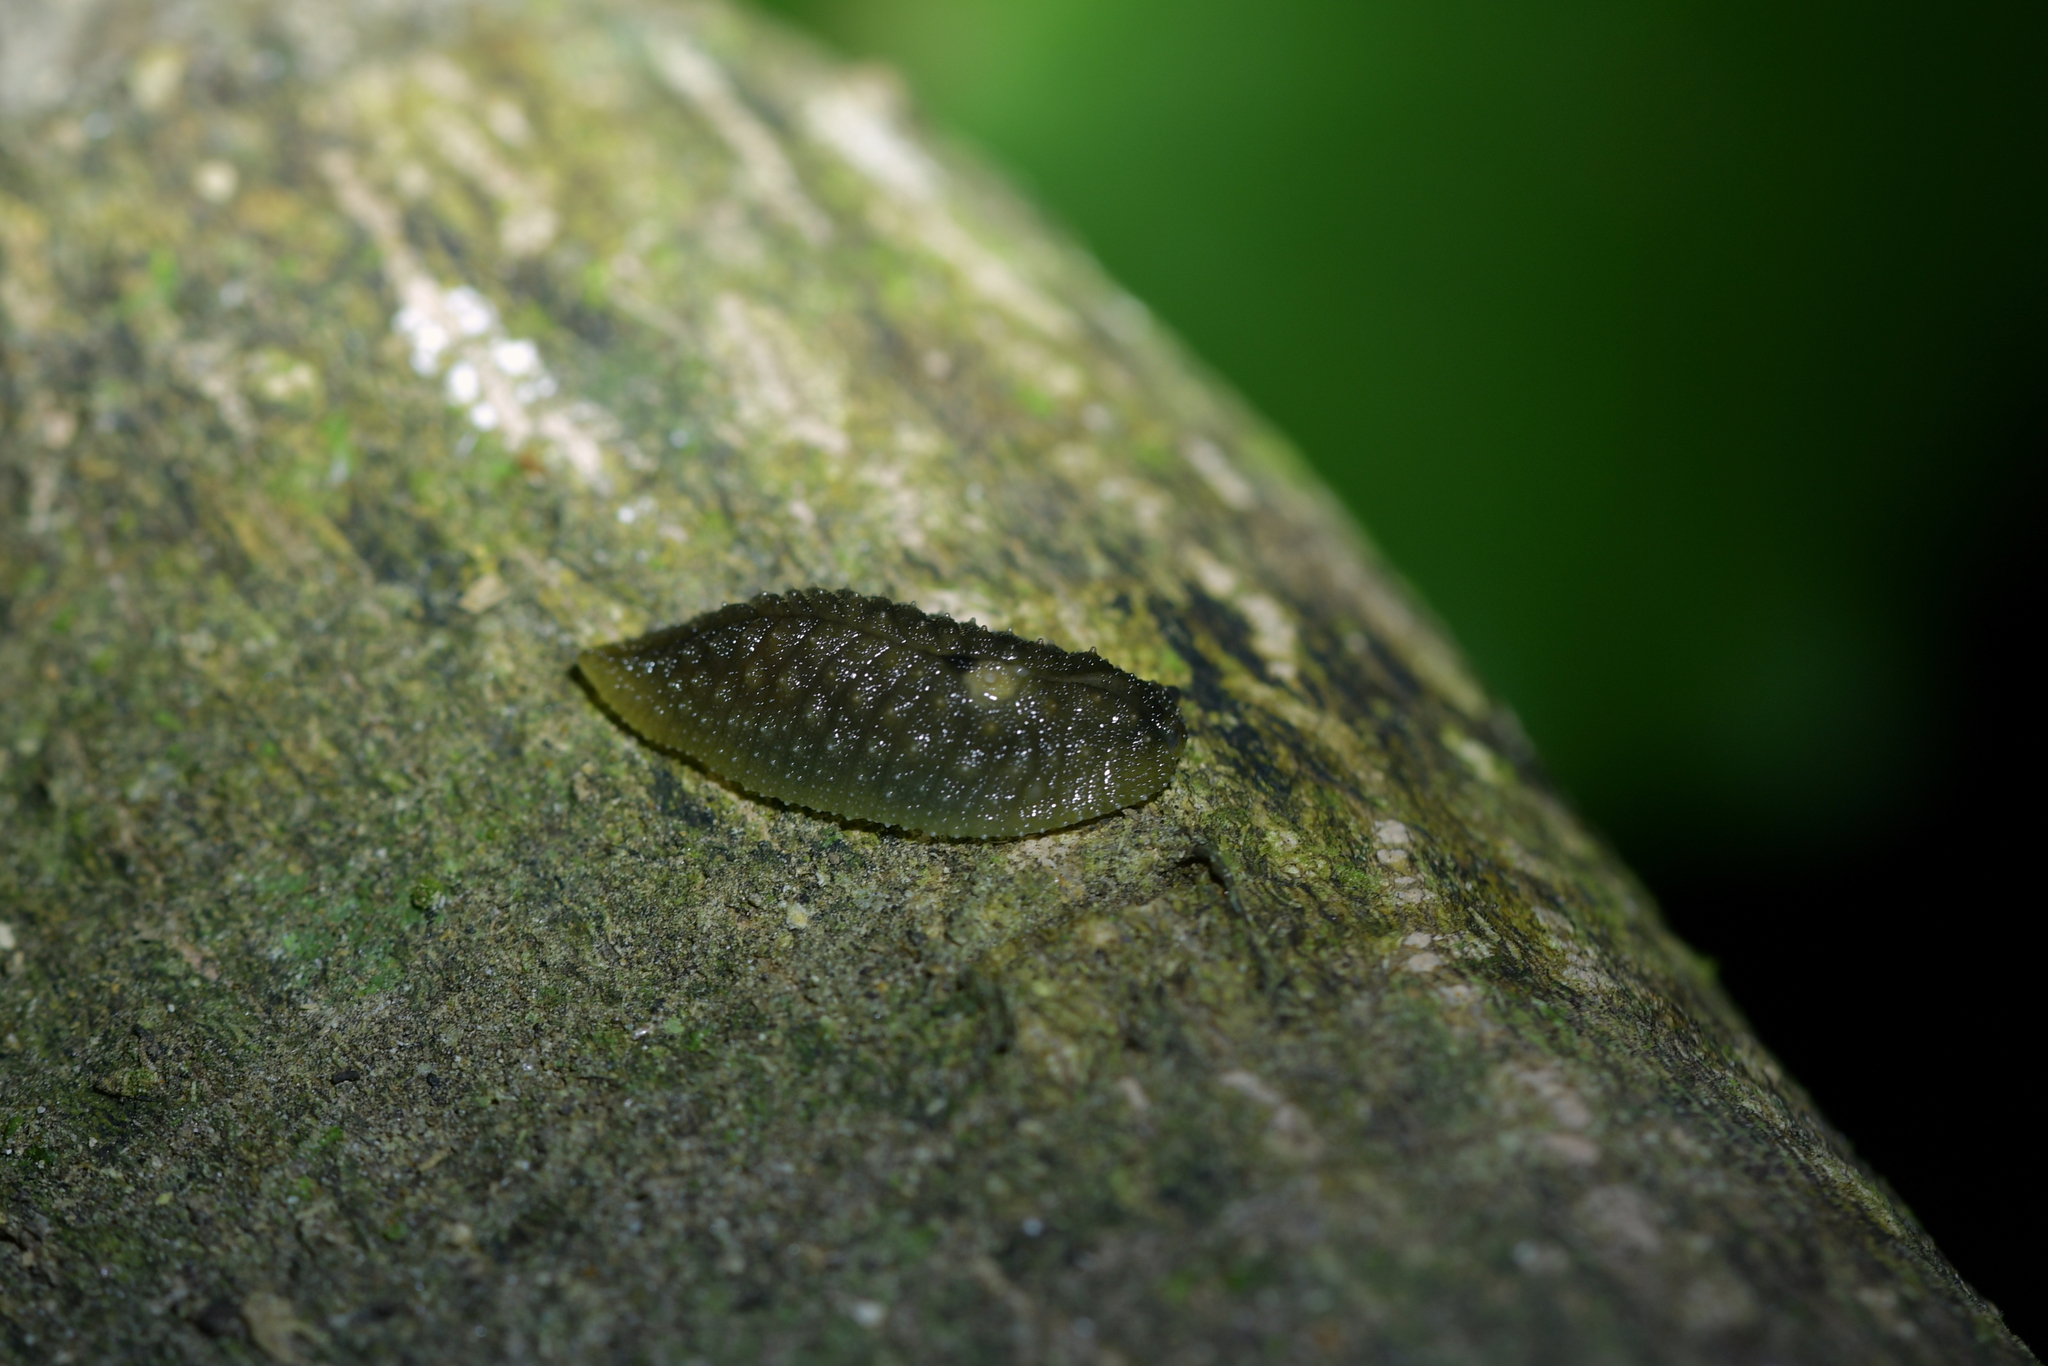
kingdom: Animalia
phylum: Mollusca
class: Gastropoda
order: Stylommatophora
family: Athoracophoridae
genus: Athoracophorus
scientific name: Athoracophorus papillatus
